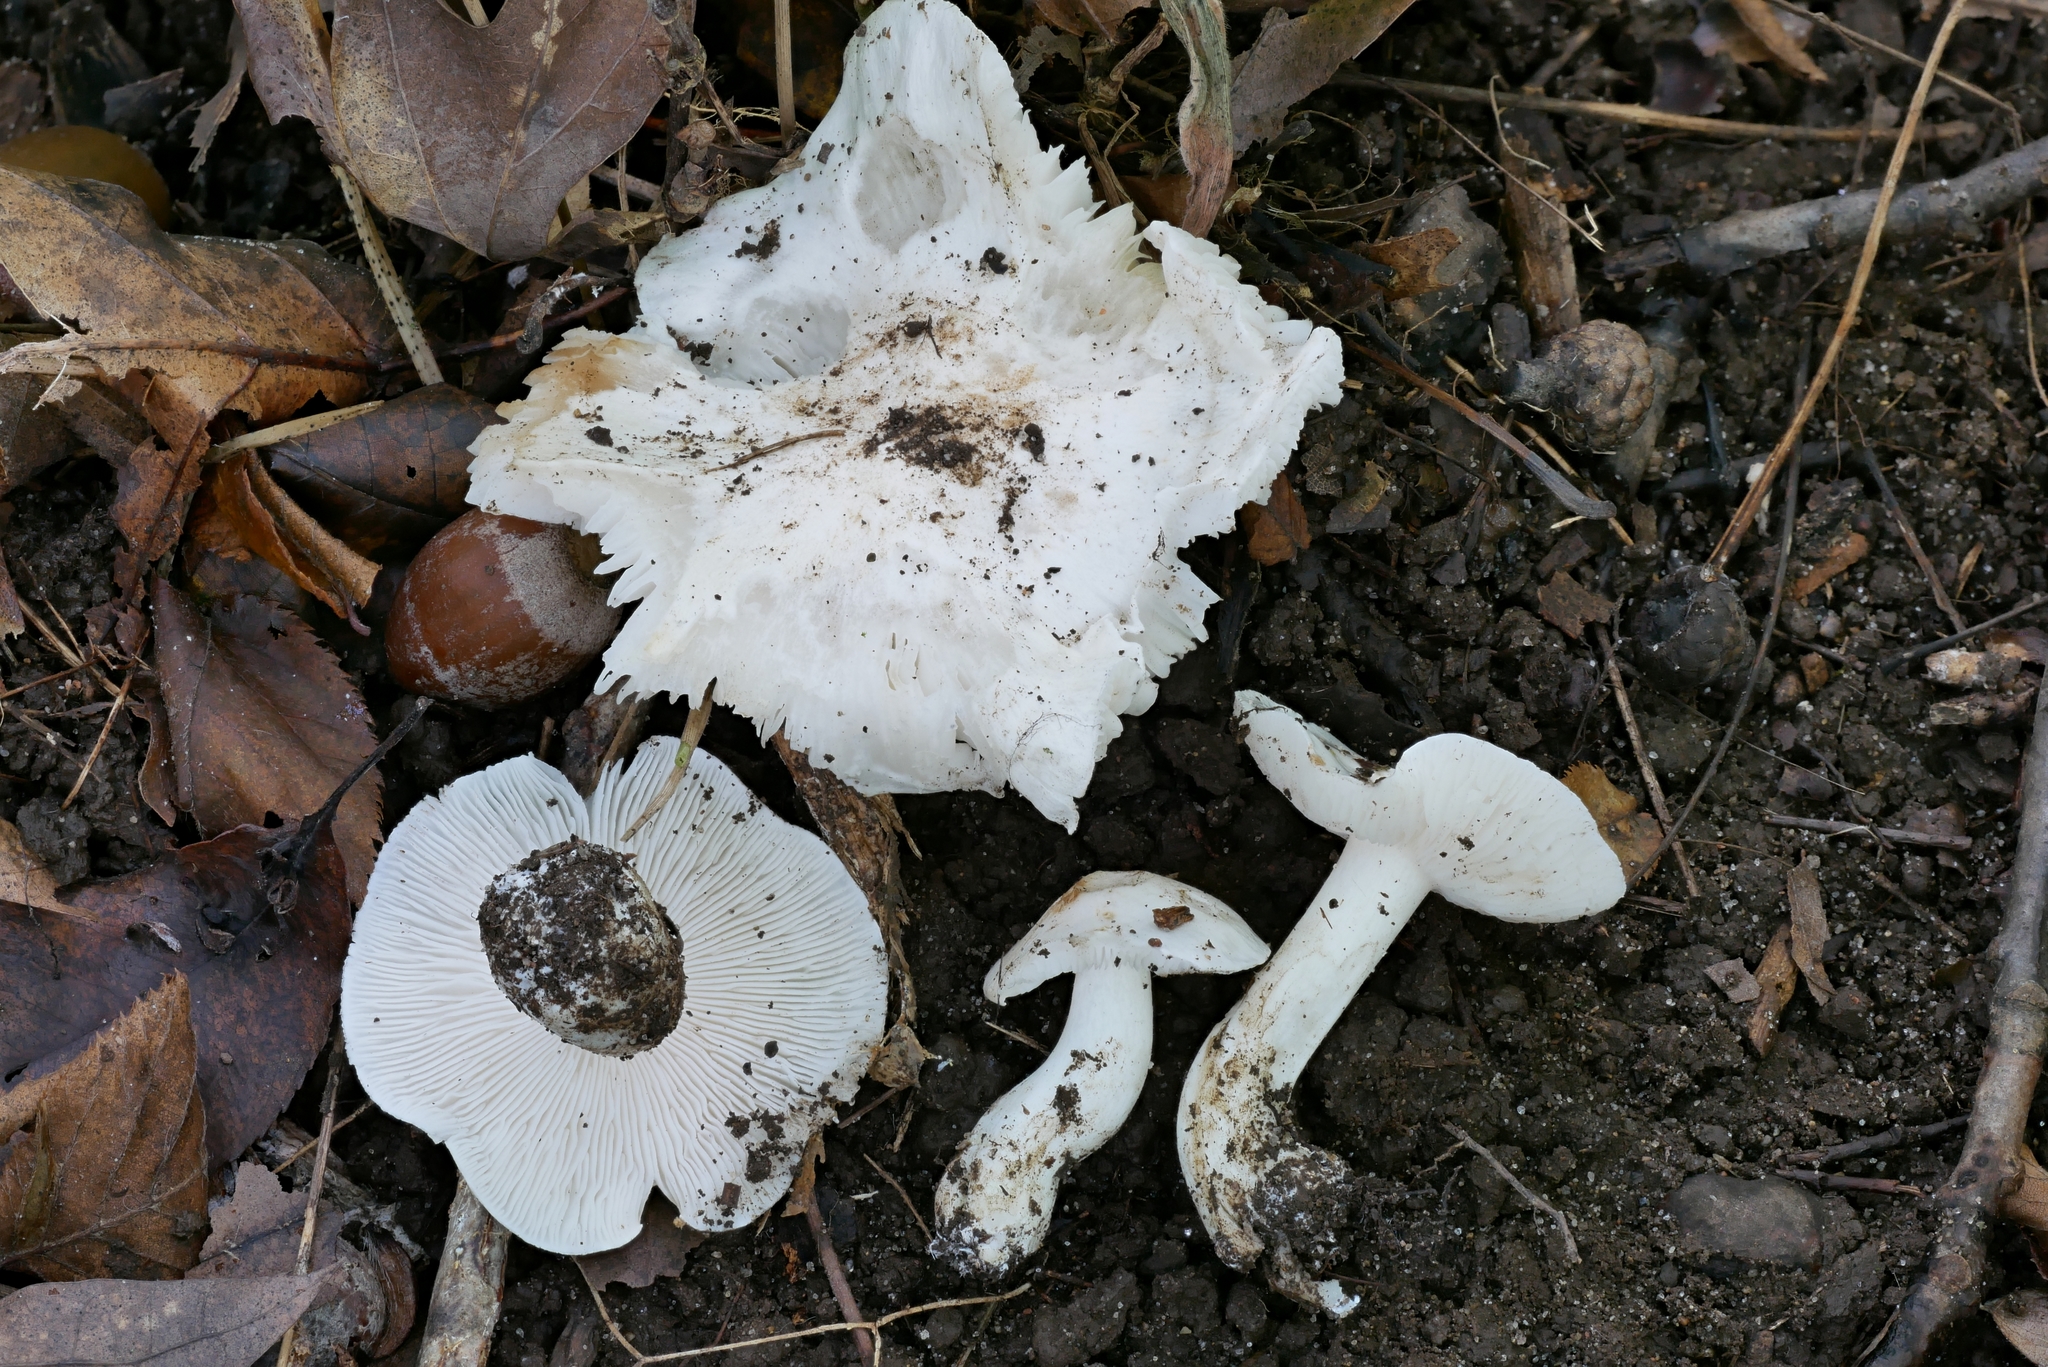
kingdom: Fungi
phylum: Basidiomycota
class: Agaricomycetes
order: Agaricales
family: Tricholomataceae
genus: Tricholoma
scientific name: Tricholoma subresplendens
